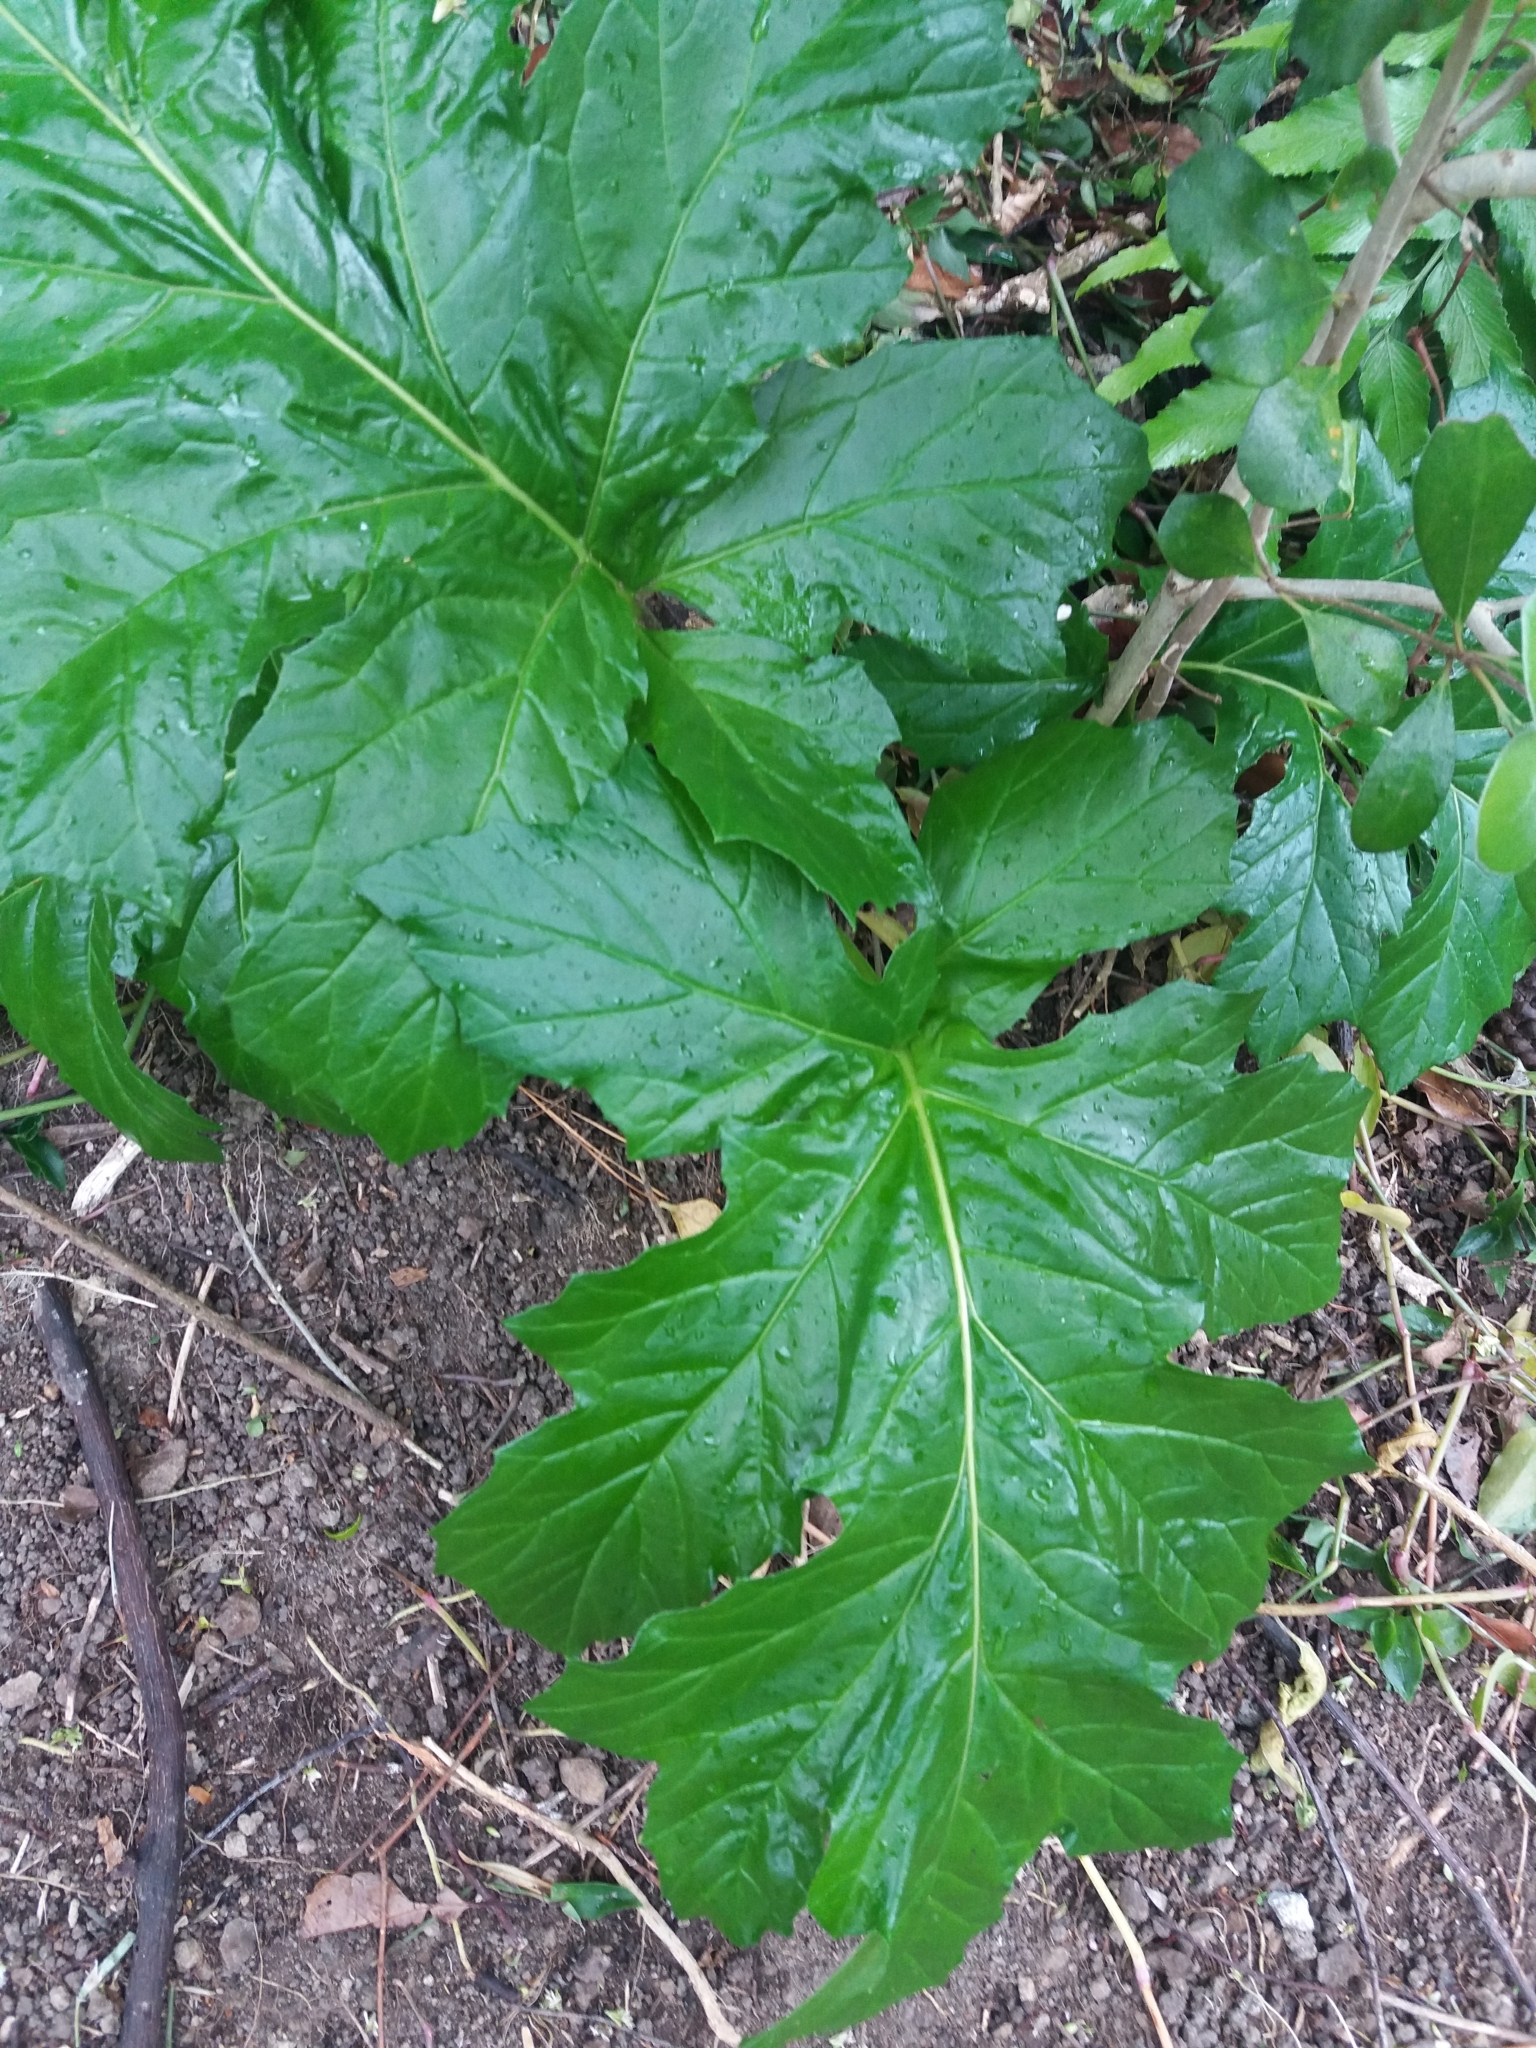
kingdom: Plantae
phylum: Tracheophyta
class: Magnoliopsida
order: Lamiales
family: Acanthaceae
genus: Acanthus
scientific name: Acanthus mollis
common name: Bear's-breech
